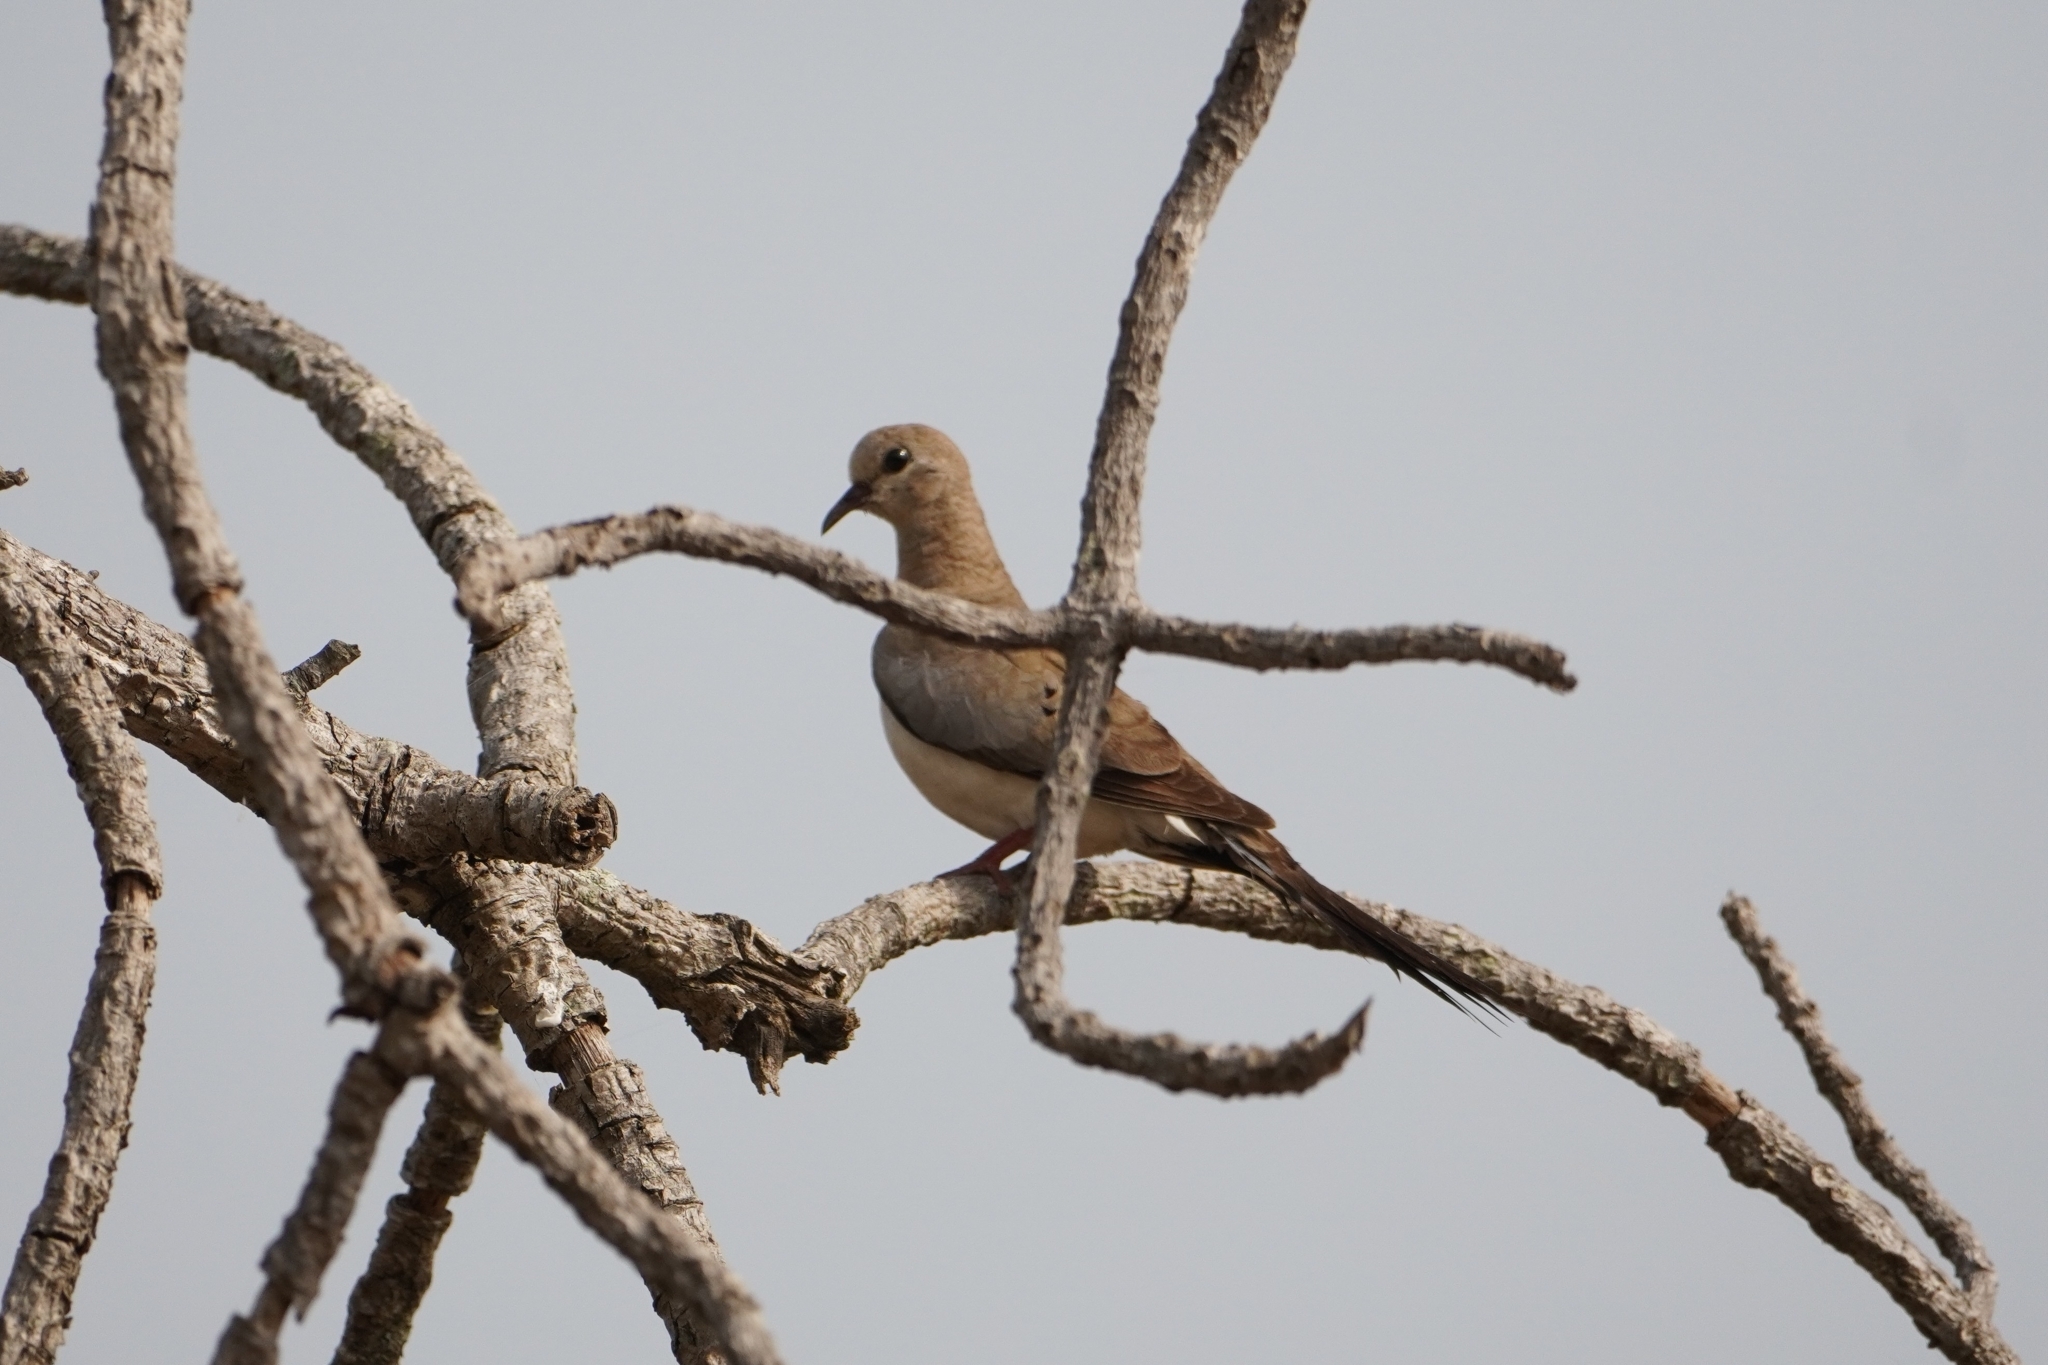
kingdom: Animalia
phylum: Chordata
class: Aves
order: Columbiformes
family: Columbidae
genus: Oena
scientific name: Oena capensis
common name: Namaqua dove
